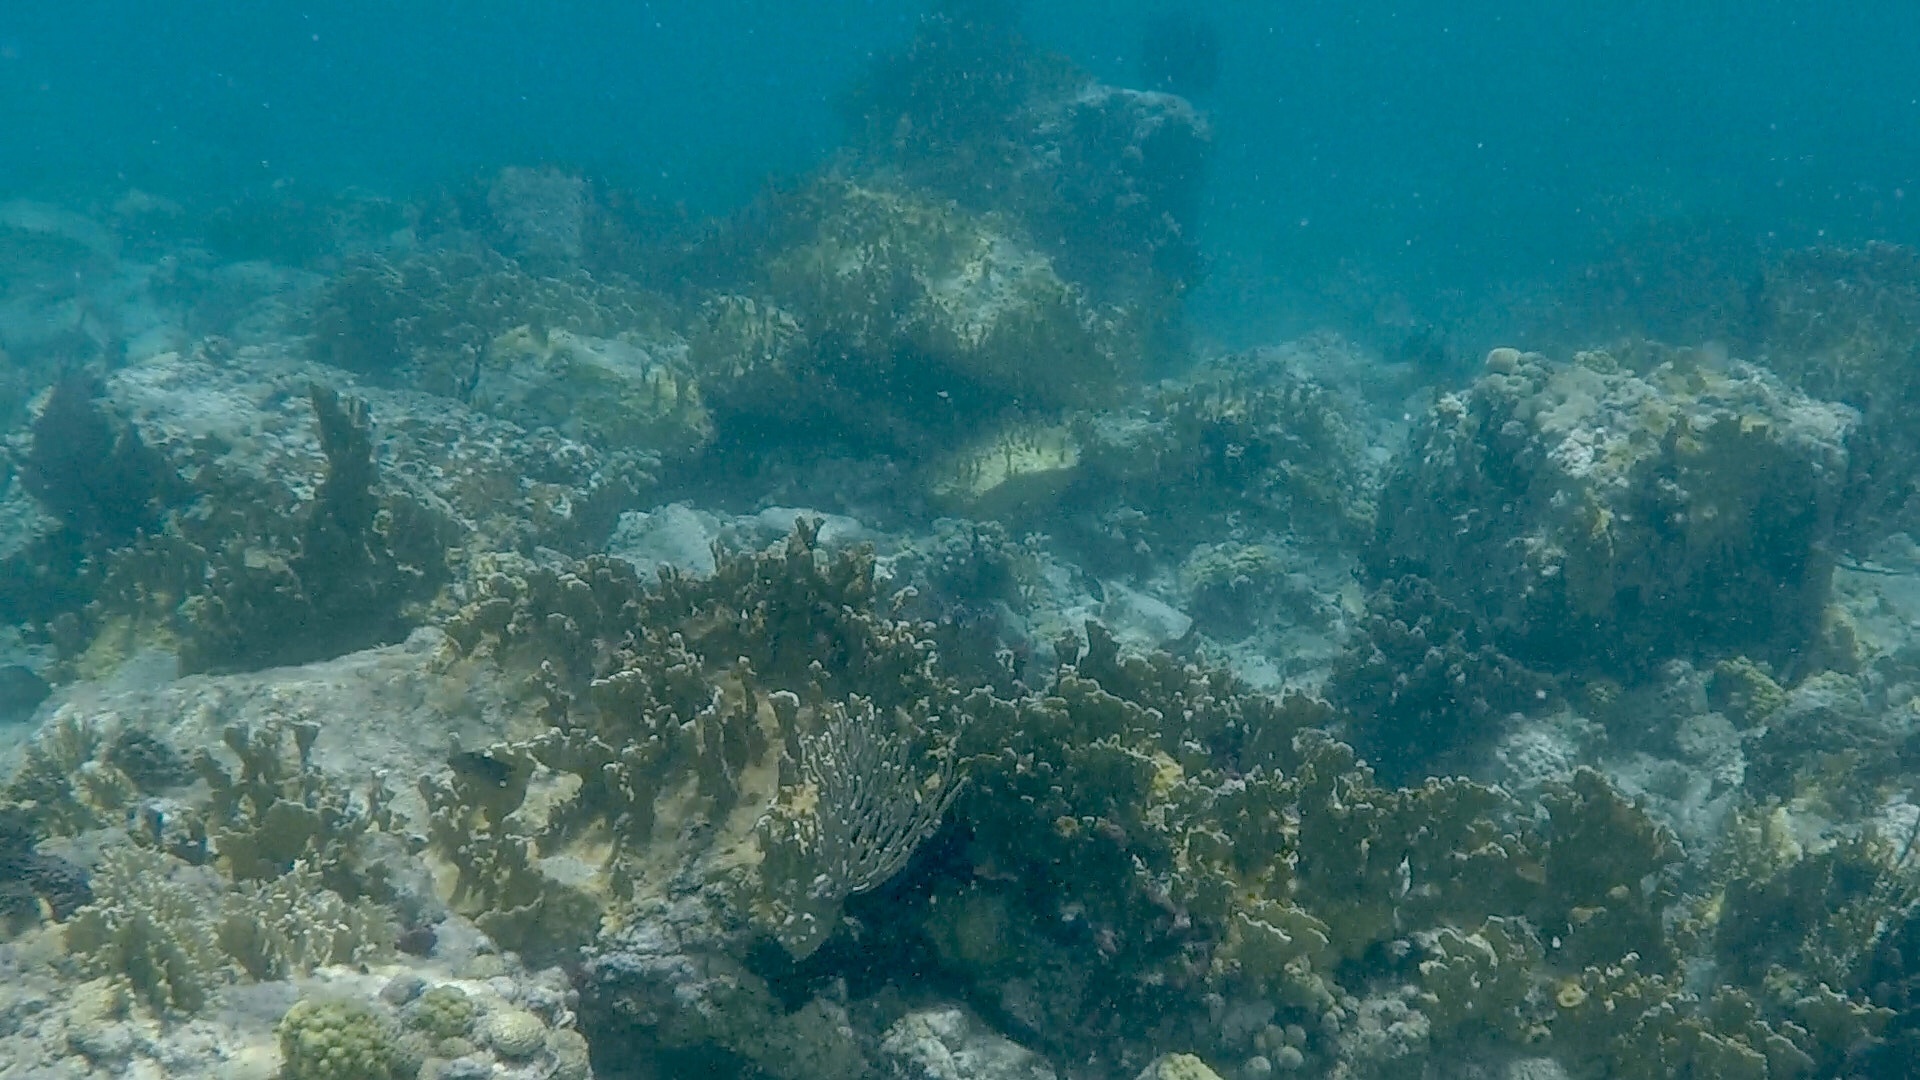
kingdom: Animalia
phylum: Cnidaria
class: Hydrozoa
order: Anthoathecata
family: Milleporidae
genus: Millepora
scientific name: Millepora complanata
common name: Bladed fire coral
